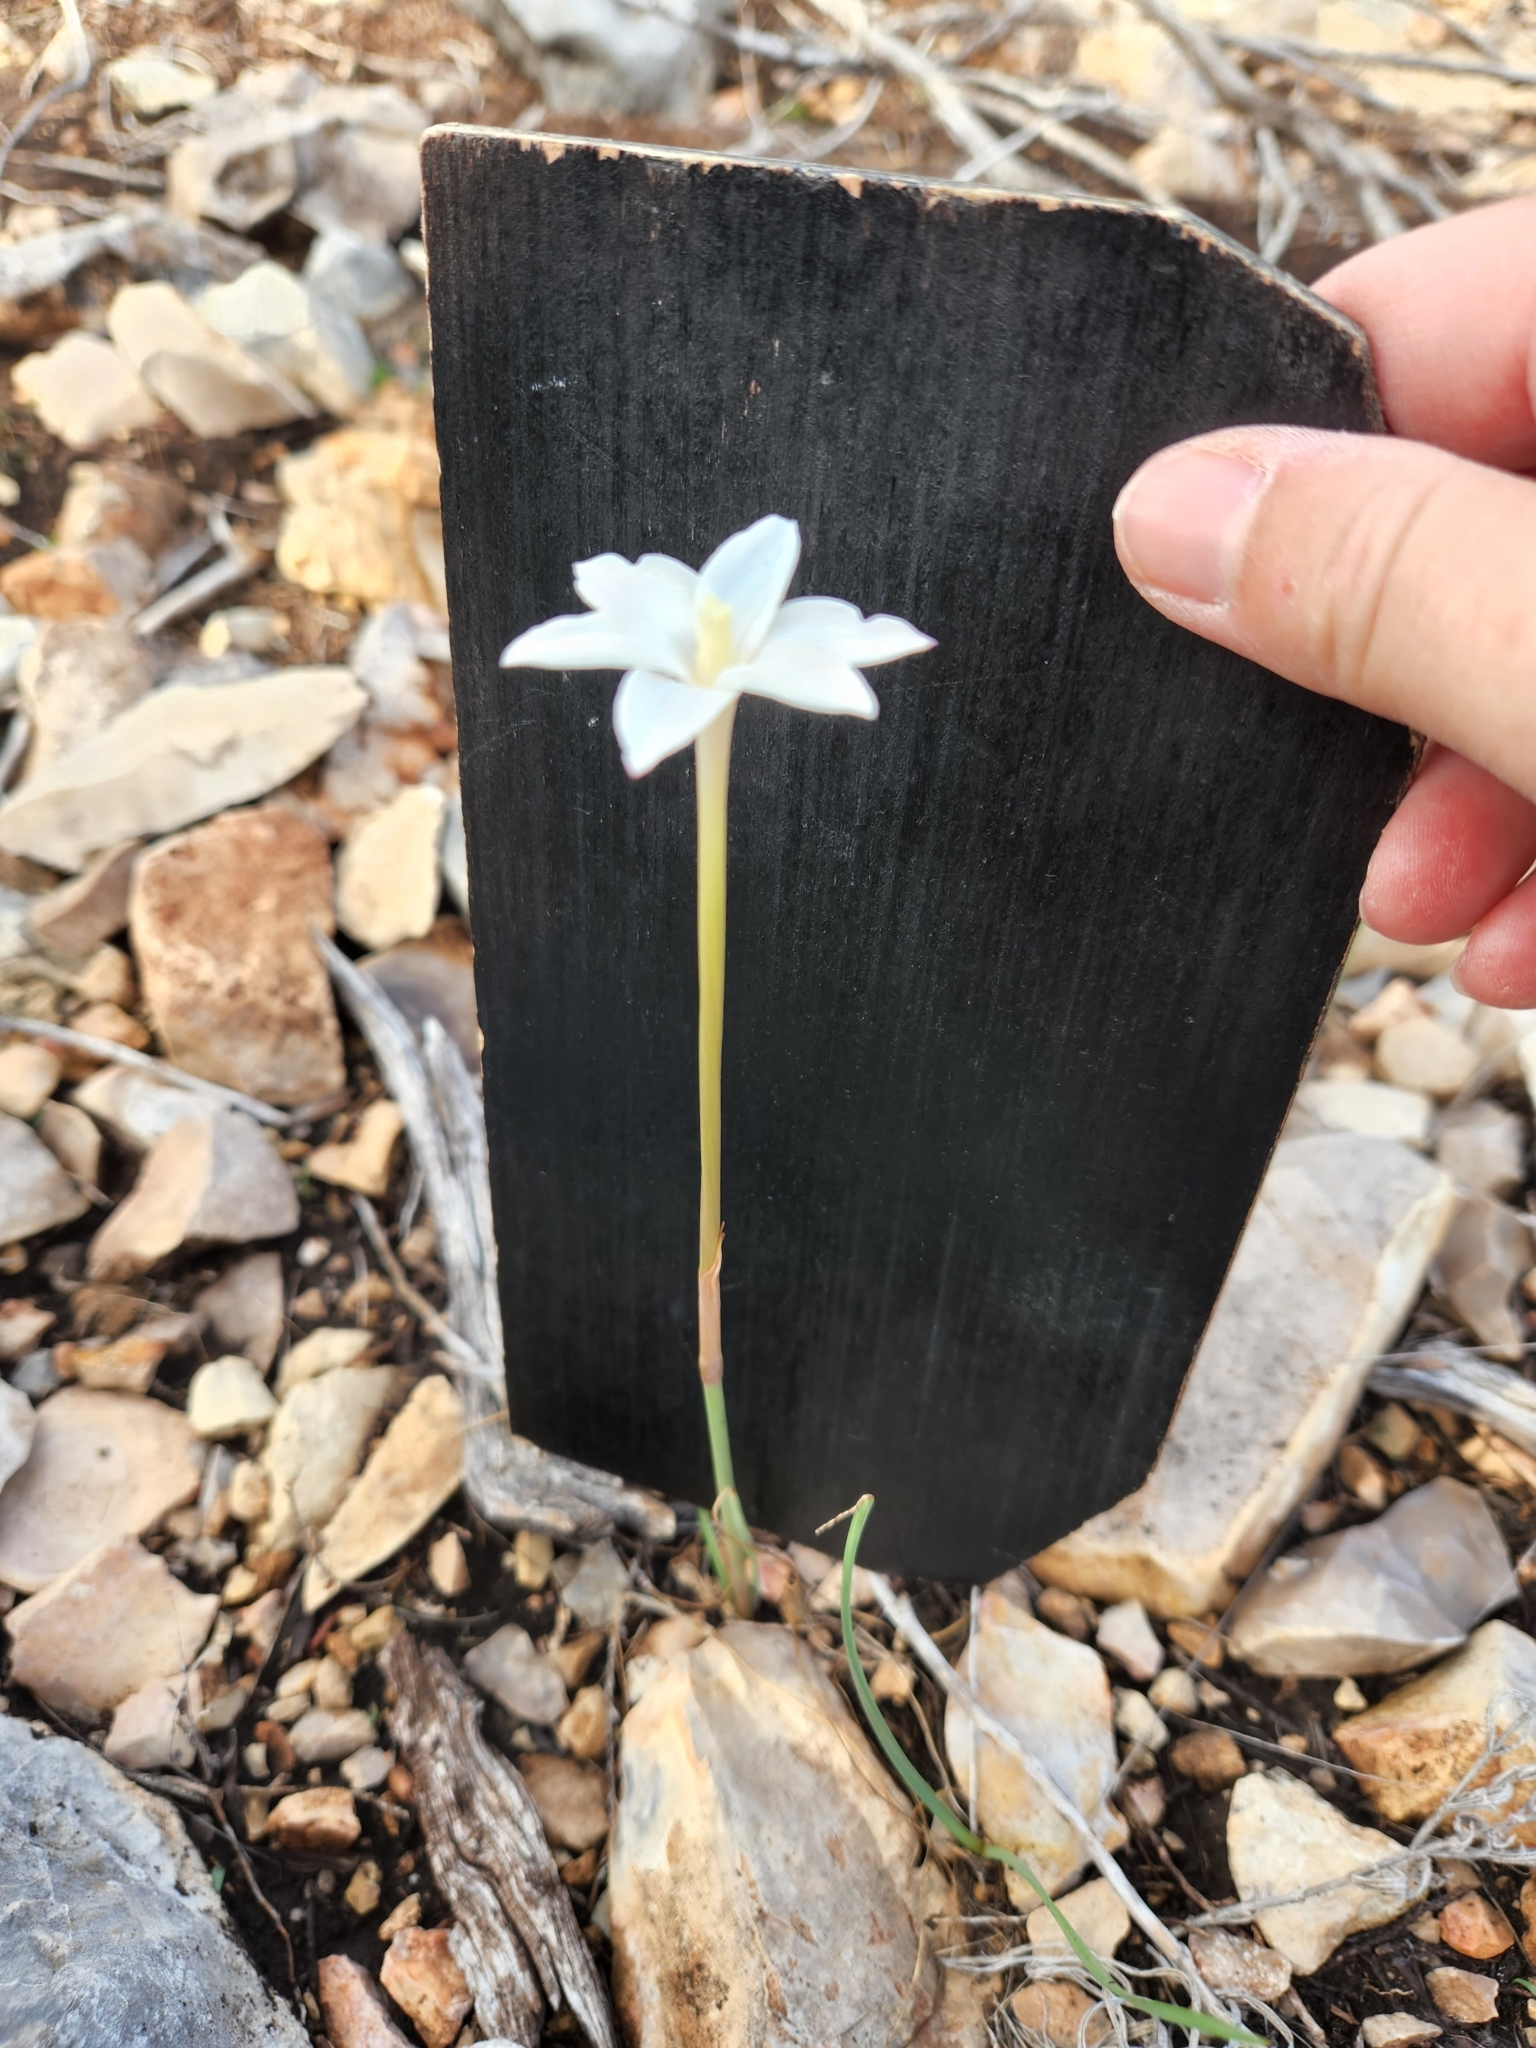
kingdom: Plantae
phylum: Tracheophyta
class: Liliopsida
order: Asparagales
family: Amaryllidaceae
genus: Zephyranthes
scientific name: Zephyranthes chlorosolen
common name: Evening rain-lily
